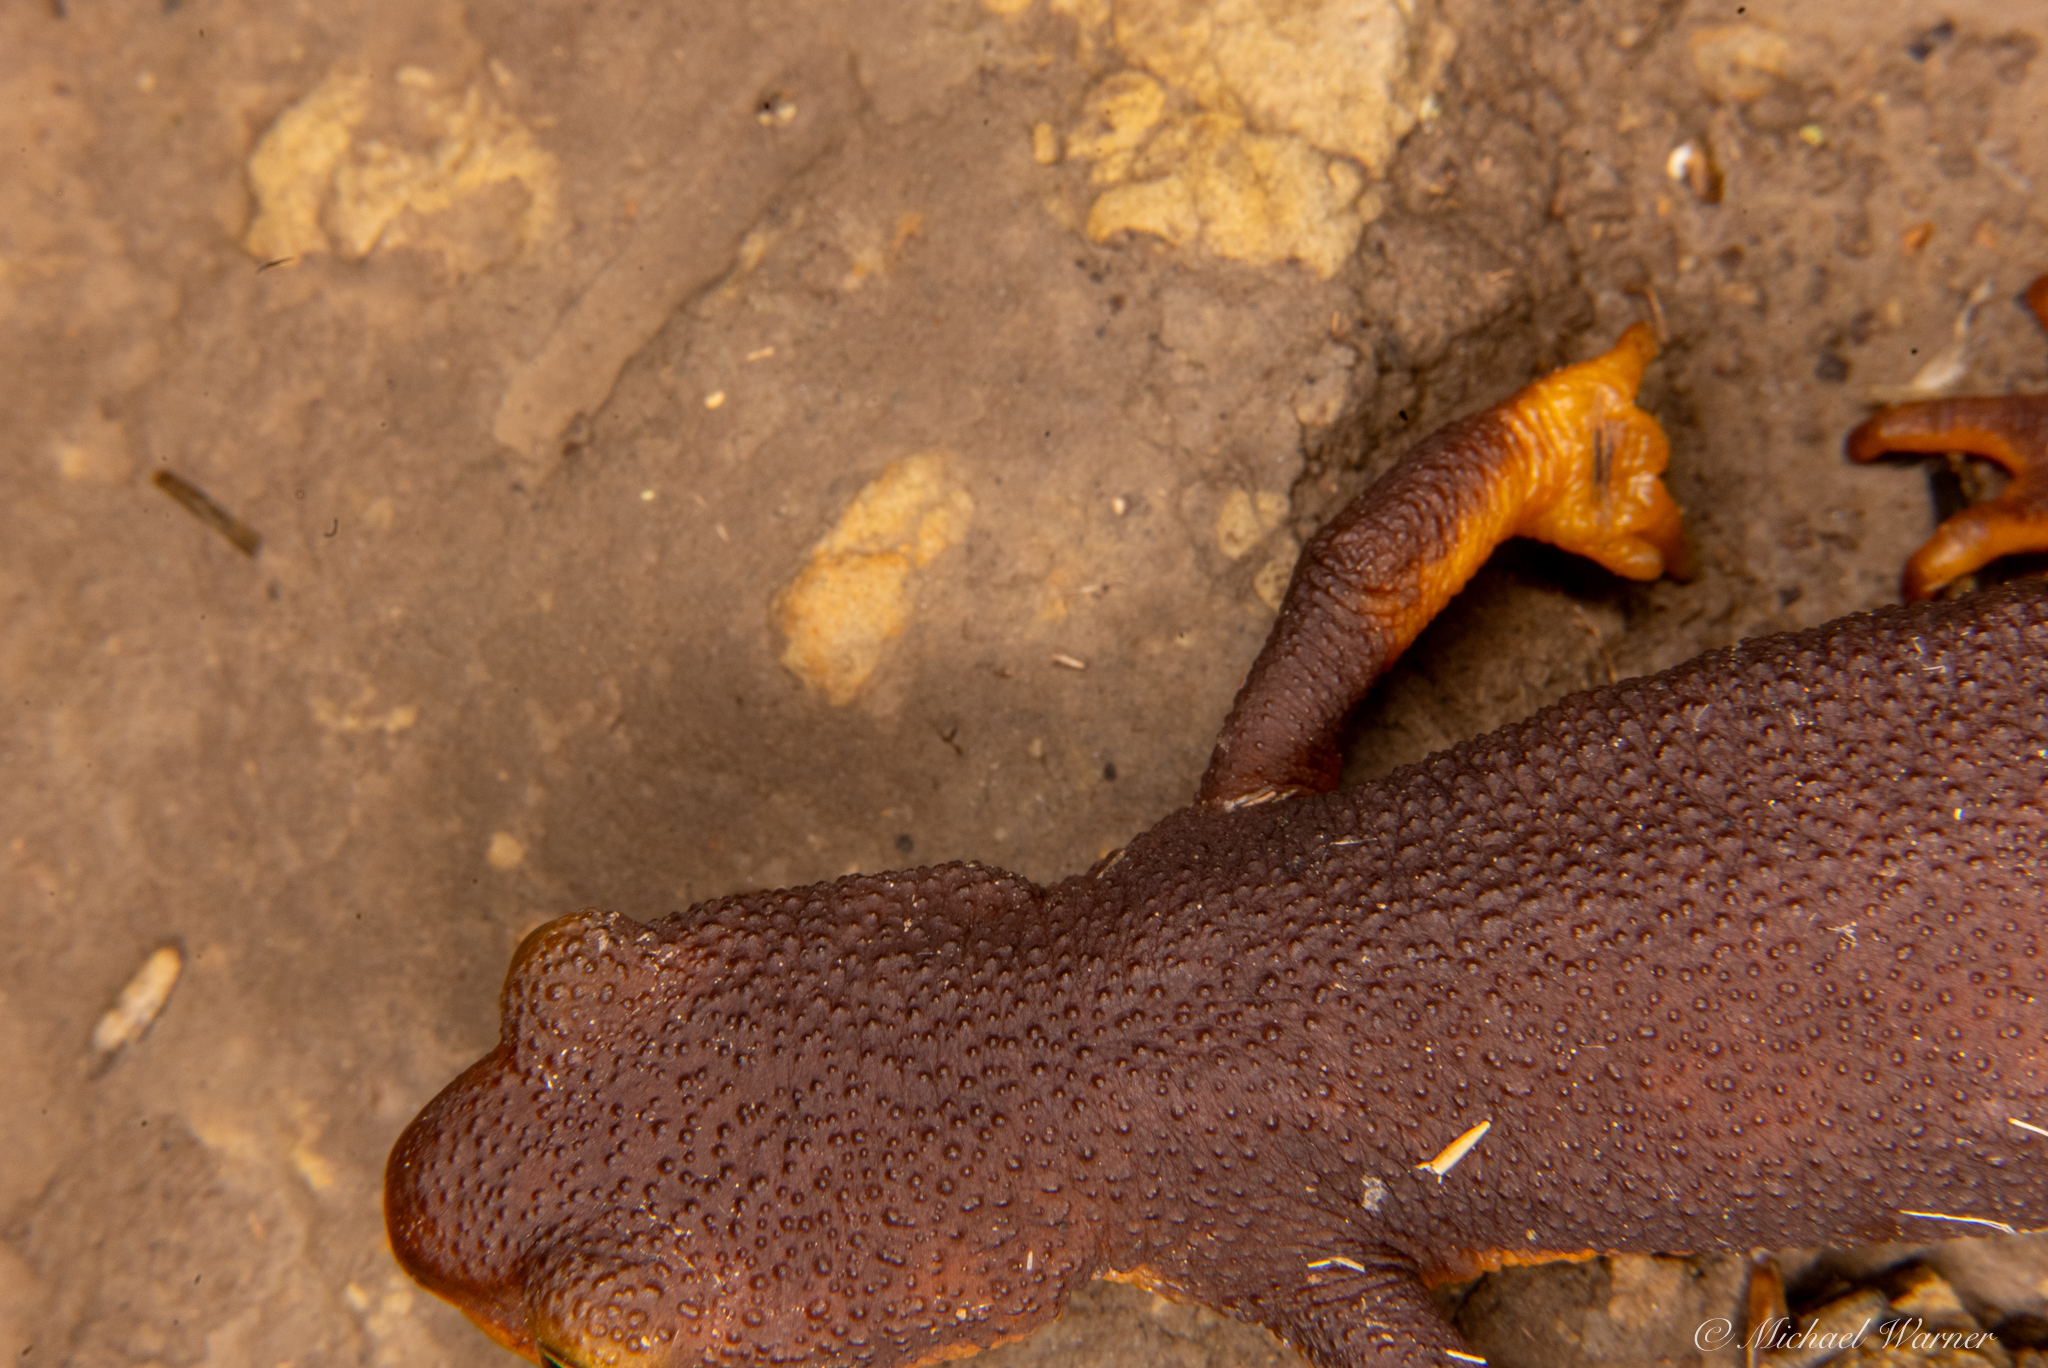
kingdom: Animalia
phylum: Chordata
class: Amphibia
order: Caudata
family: Salamandridae
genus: Taricha
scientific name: Taricha torosa
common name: California newt
